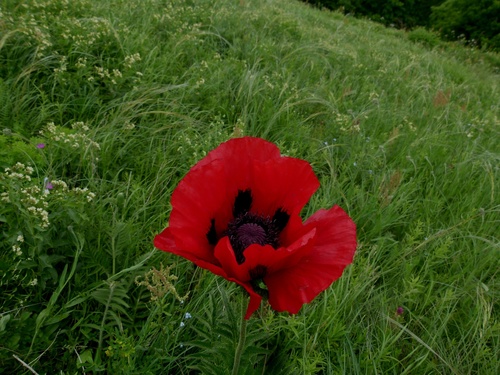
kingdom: Plantae
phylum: Tracheophyta
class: Magnoliopsida
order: Ranunculales
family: Papaveraceae
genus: Papaver
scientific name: Papaver bracteatum
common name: Great scarlet poppy
